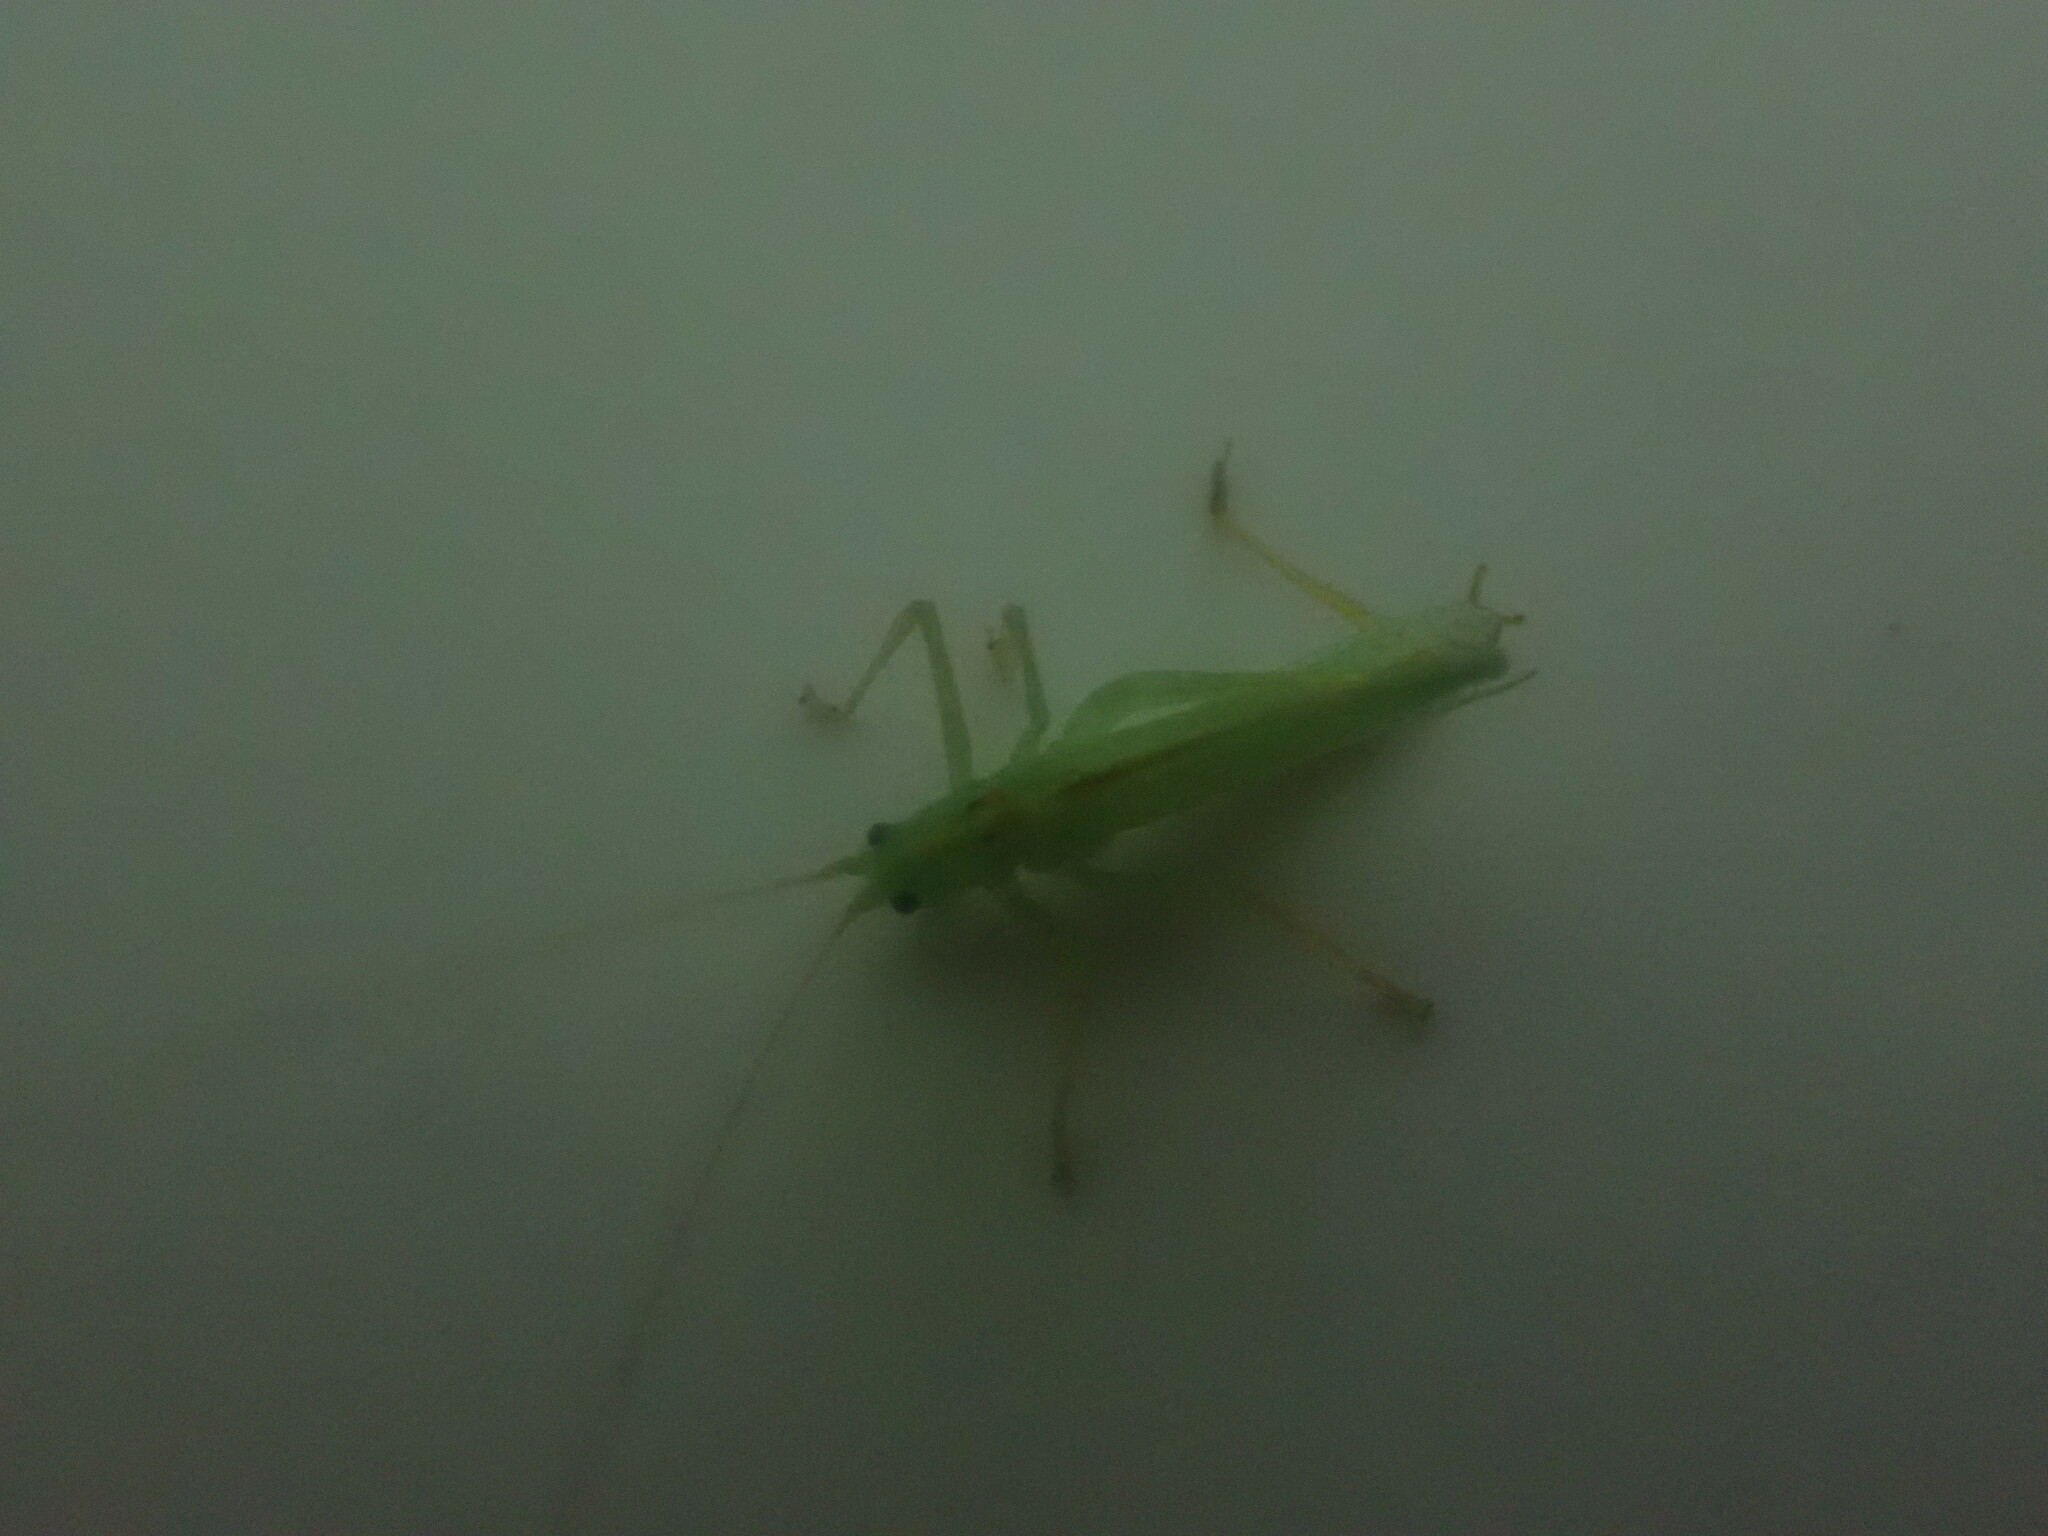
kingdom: Animalia
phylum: Arthropoda
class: Insecta
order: Orthoptera
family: Tettigoniidae
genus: Meconema
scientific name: Meconema thalassinum
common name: Oak bush-cricket
